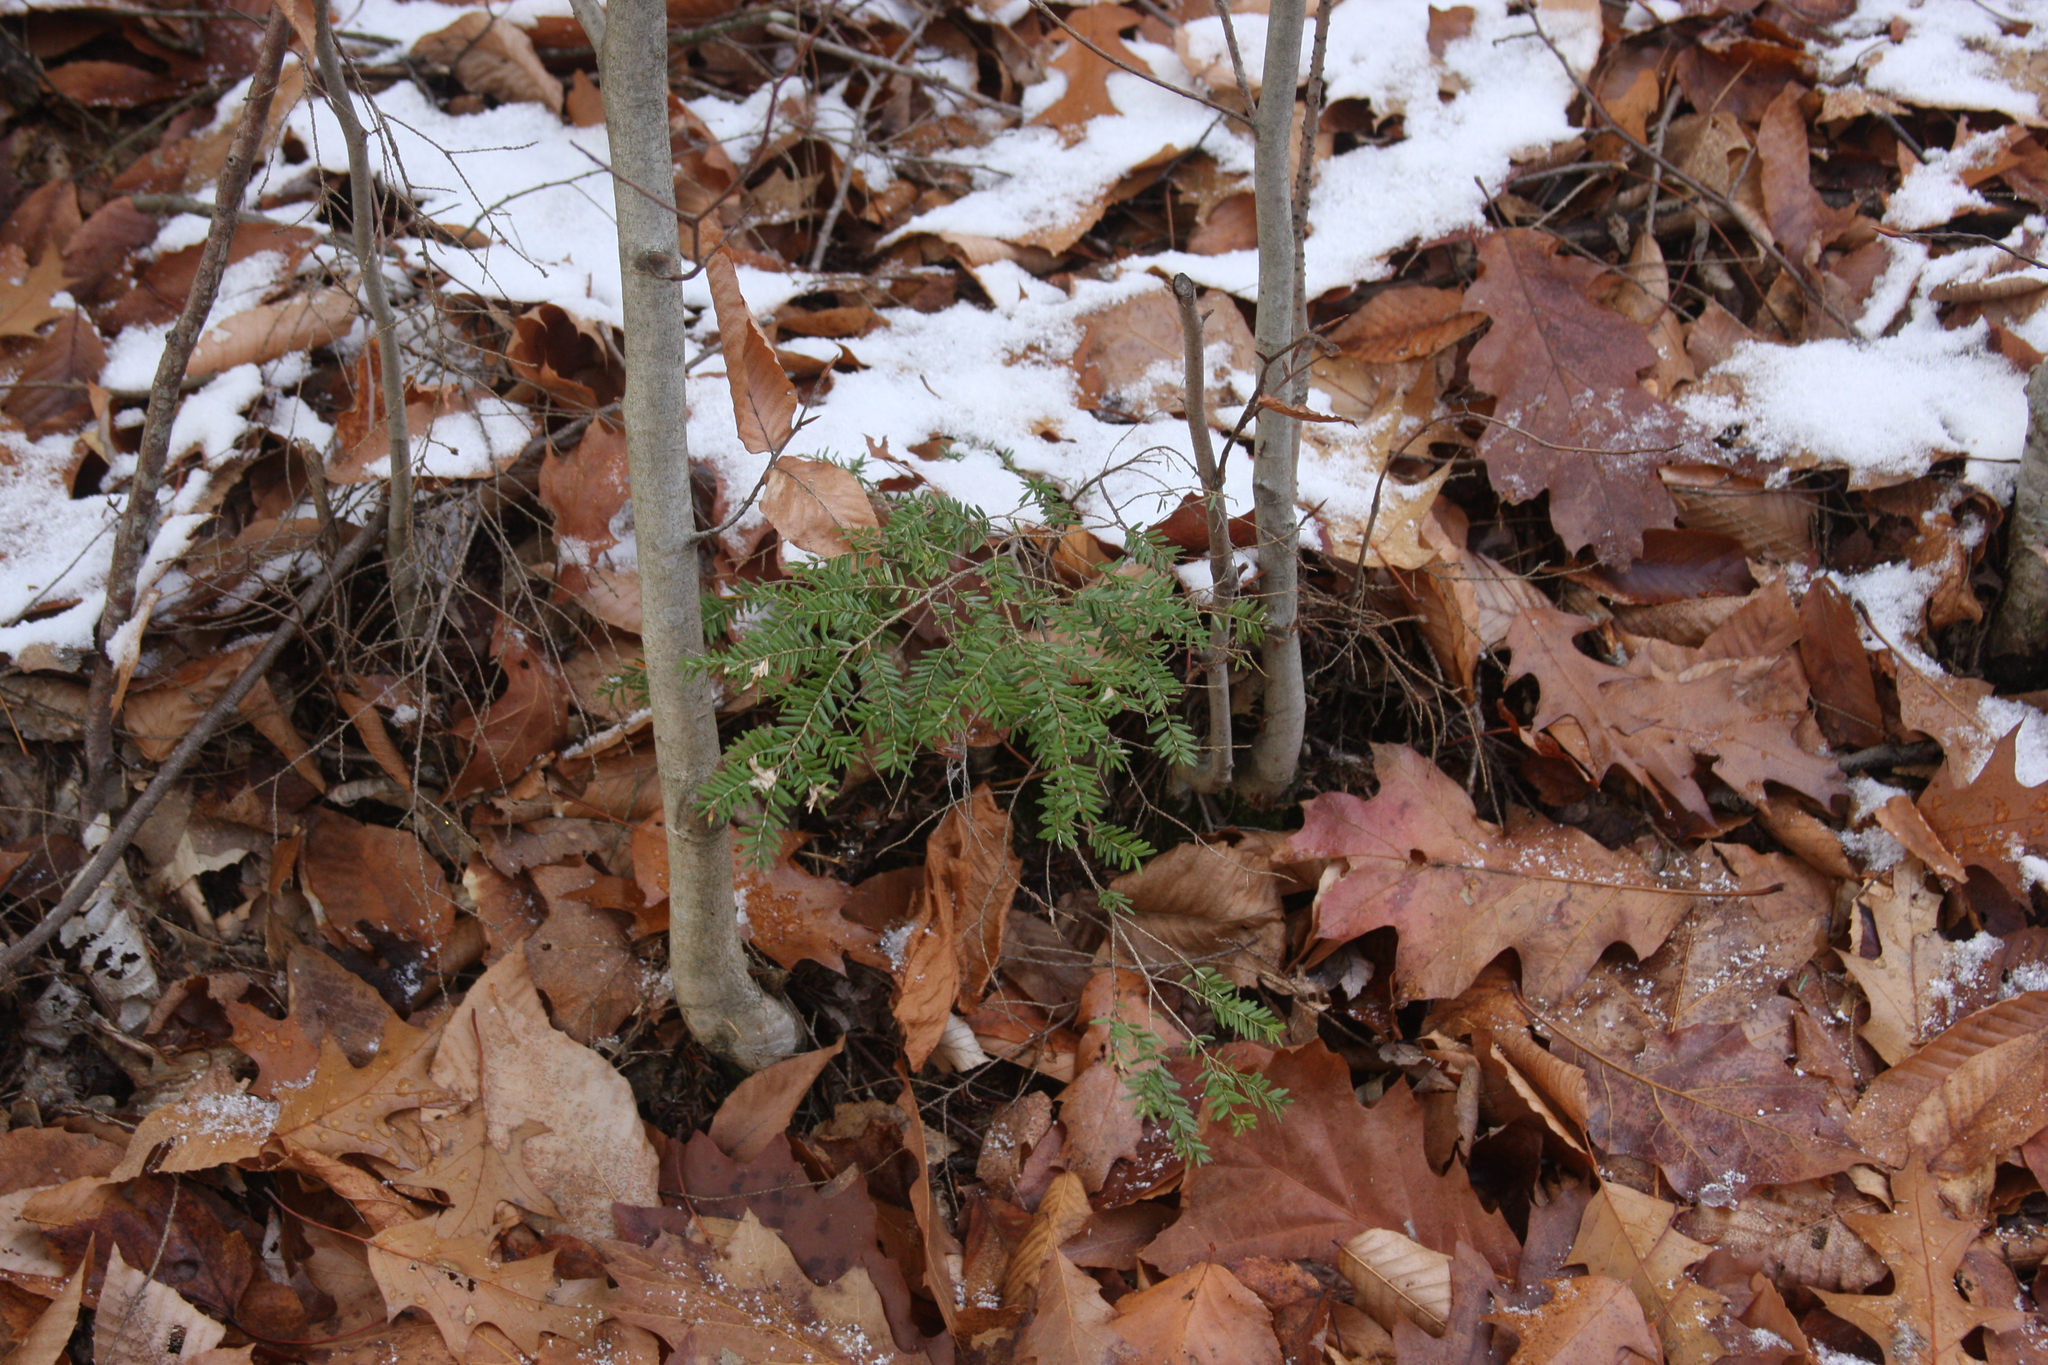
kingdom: Plantae
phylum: Tracheophyta
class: Pinopsida
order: Pinales
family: Pinaceae
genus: Tsuga
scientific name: Tsuga canadensis
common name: Eastern hemlock
